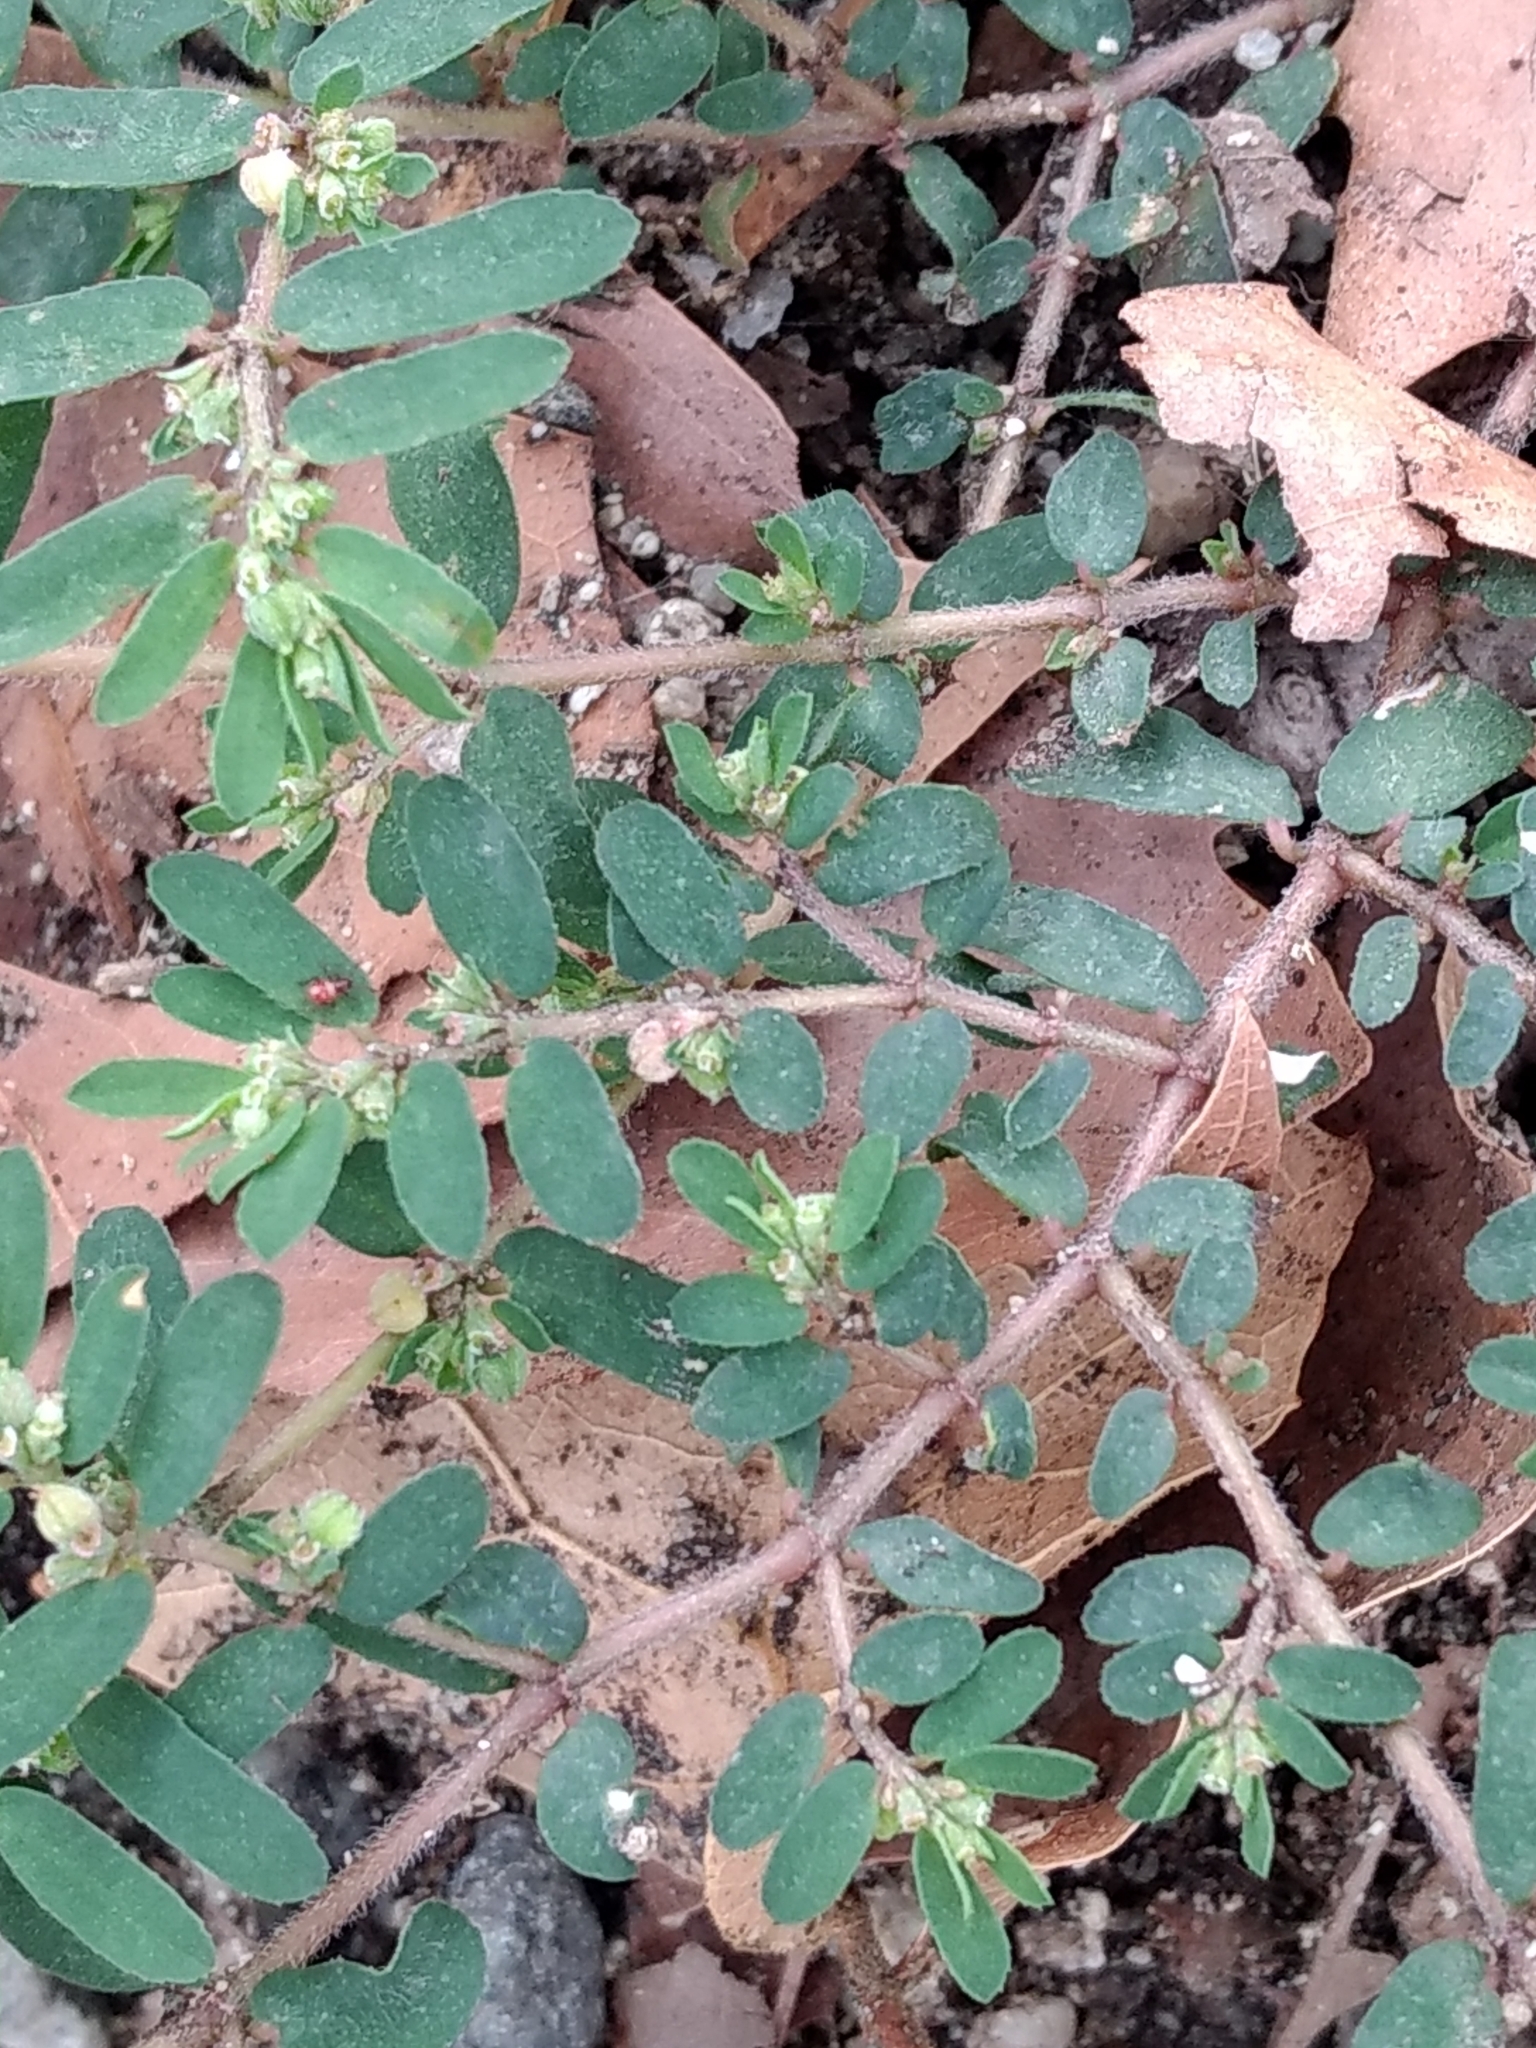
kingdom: Plantae
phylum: Tracheophyta
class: Magnoliopsida
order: Malpighiales
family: Euphorbiaceae
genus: Euphorbia
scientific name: Euphorbia maculata
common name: Spotted spurge
